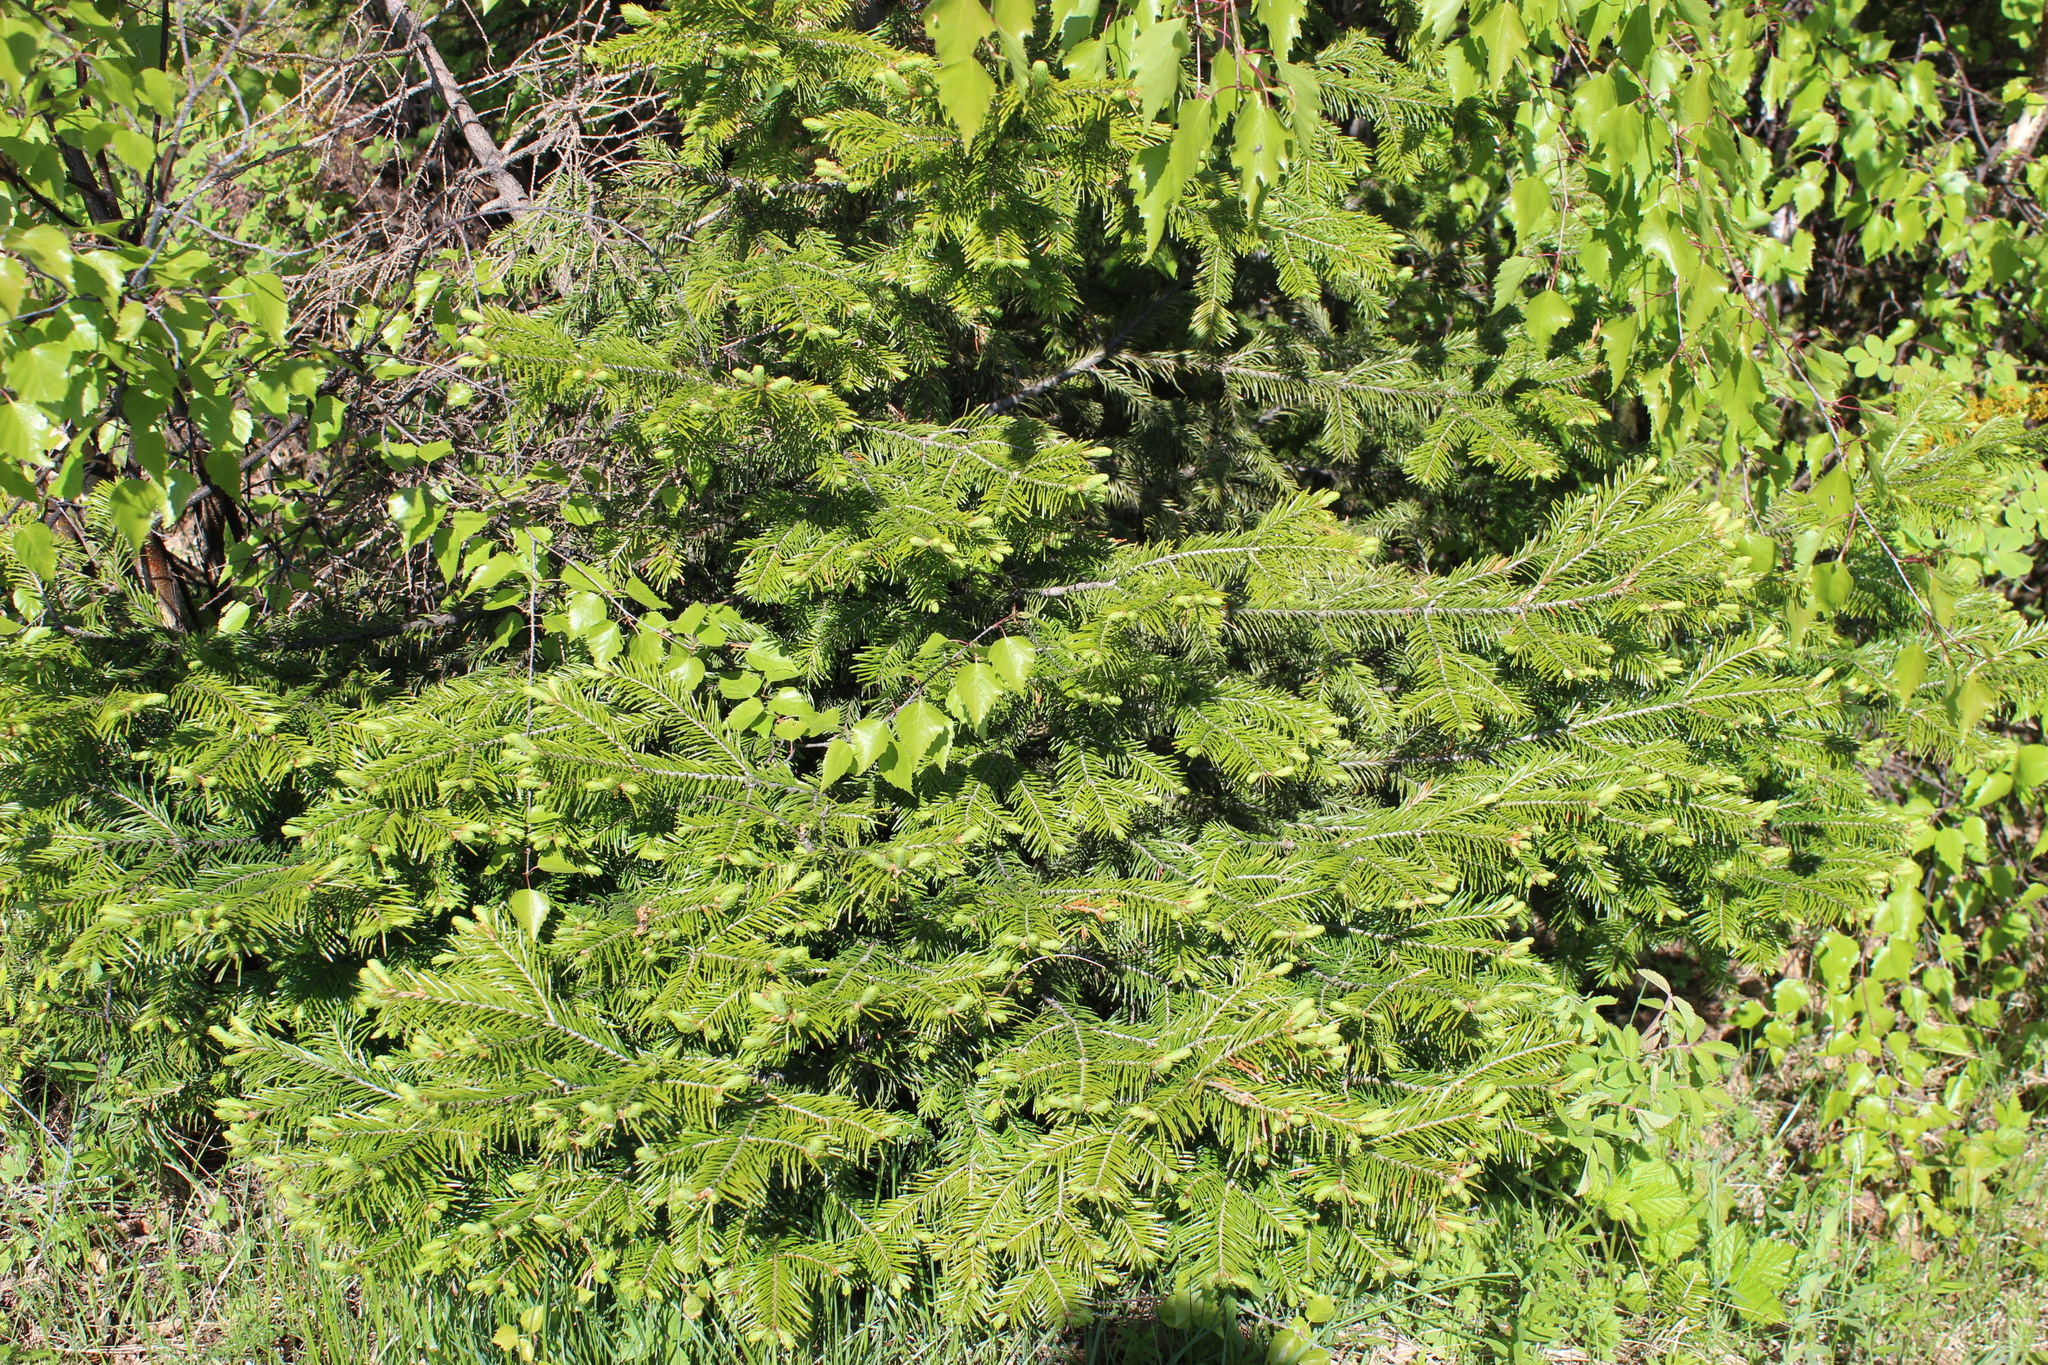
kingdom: Plantae
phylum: Tracheophyta
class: Pinopsida
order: Pinales
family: Pinaceae
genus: Abies
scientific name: Abies sibirica
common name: Siberian fir
